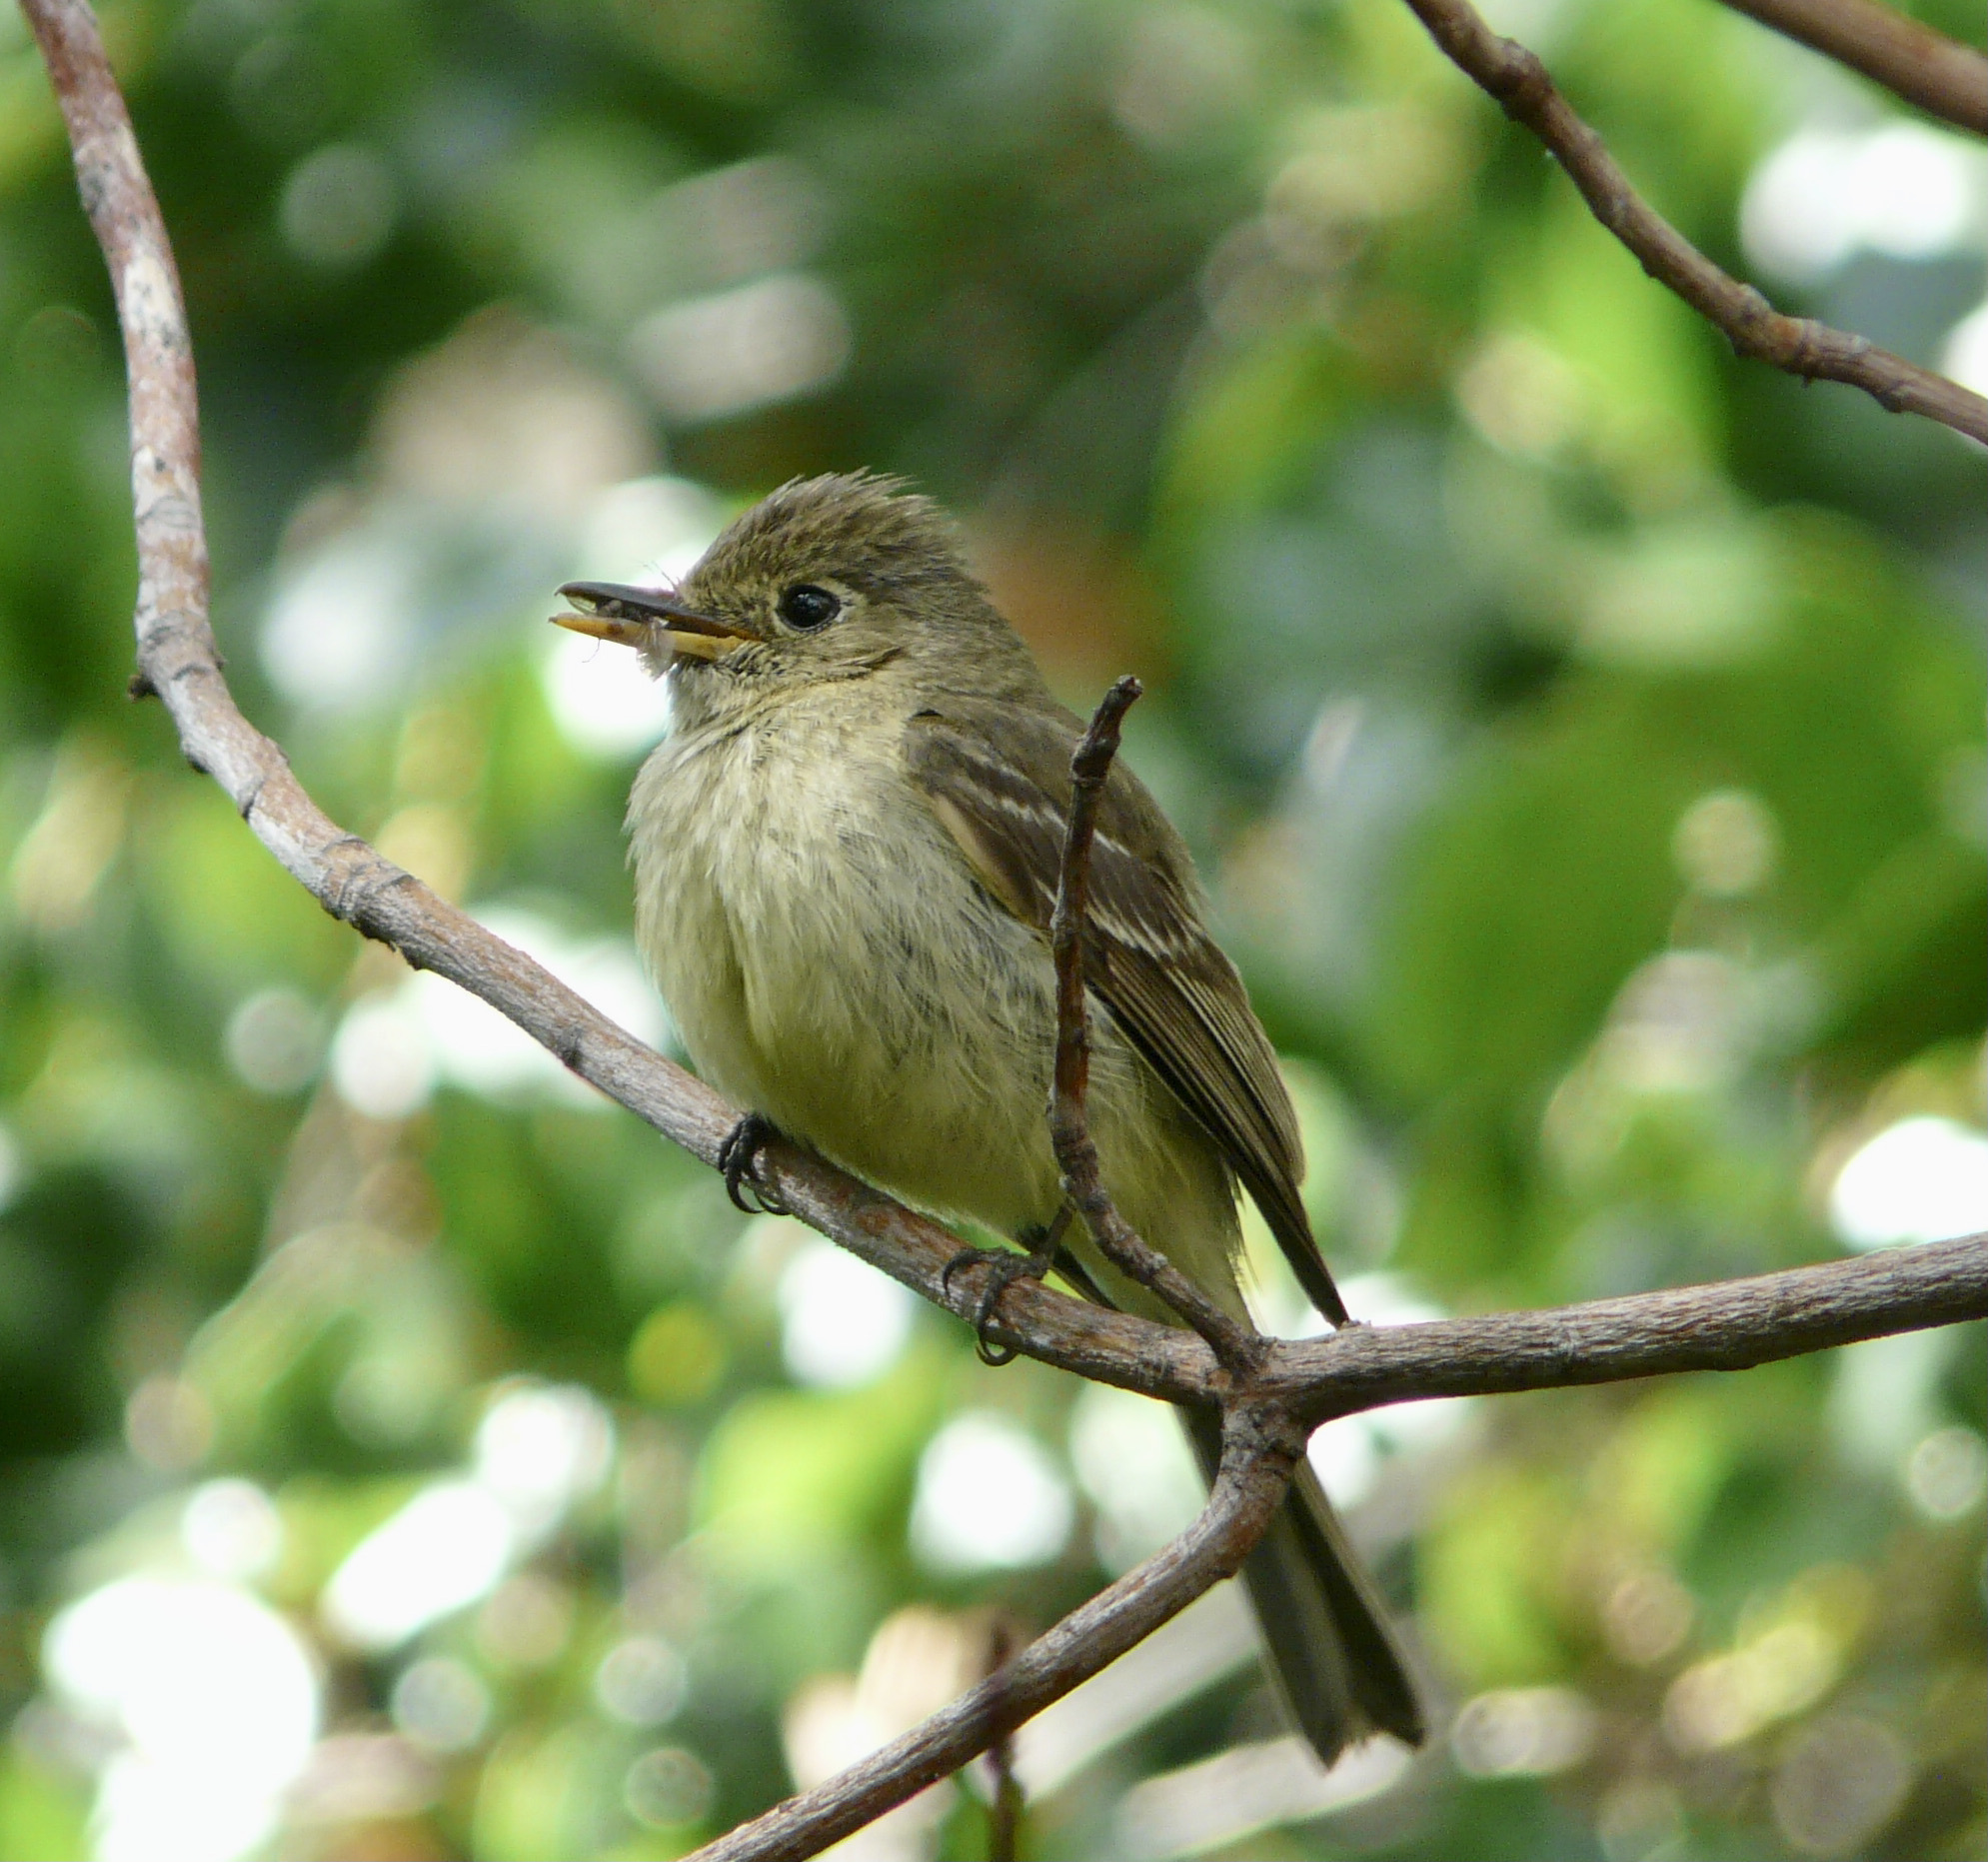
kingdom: Animalia
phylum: Chordata
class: Aves
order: Passeriformes
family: Tyrannidae
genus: Contopus
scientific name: Contopus sordidulus
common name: Western wood-pewee
